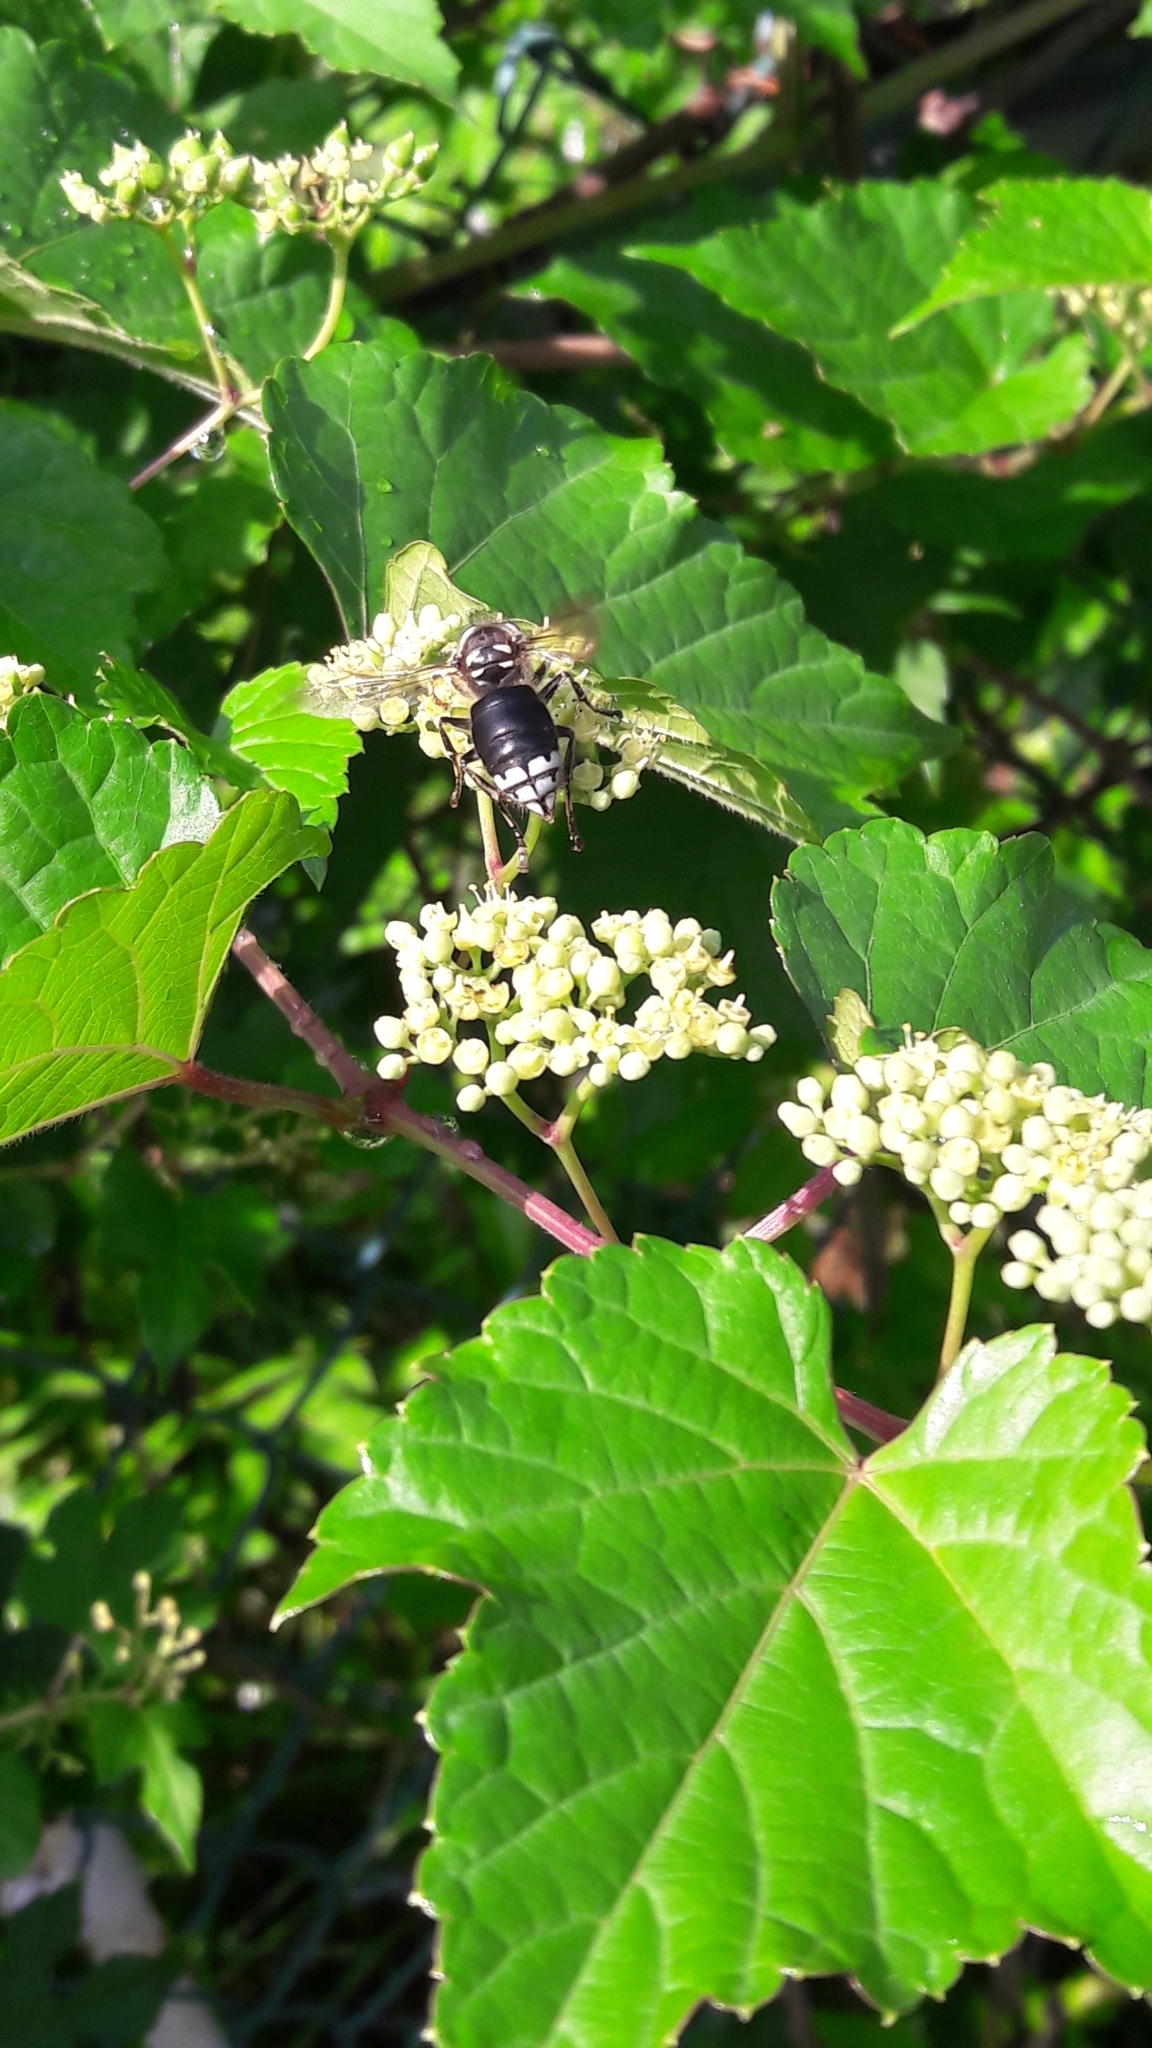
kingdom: Animalia
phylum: Arthropoda
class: Insecta
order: Hymenoptera
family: Vespidae
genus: Dolichovespula
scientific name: Dolichovespula maculata
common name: Bald-faced hornet
